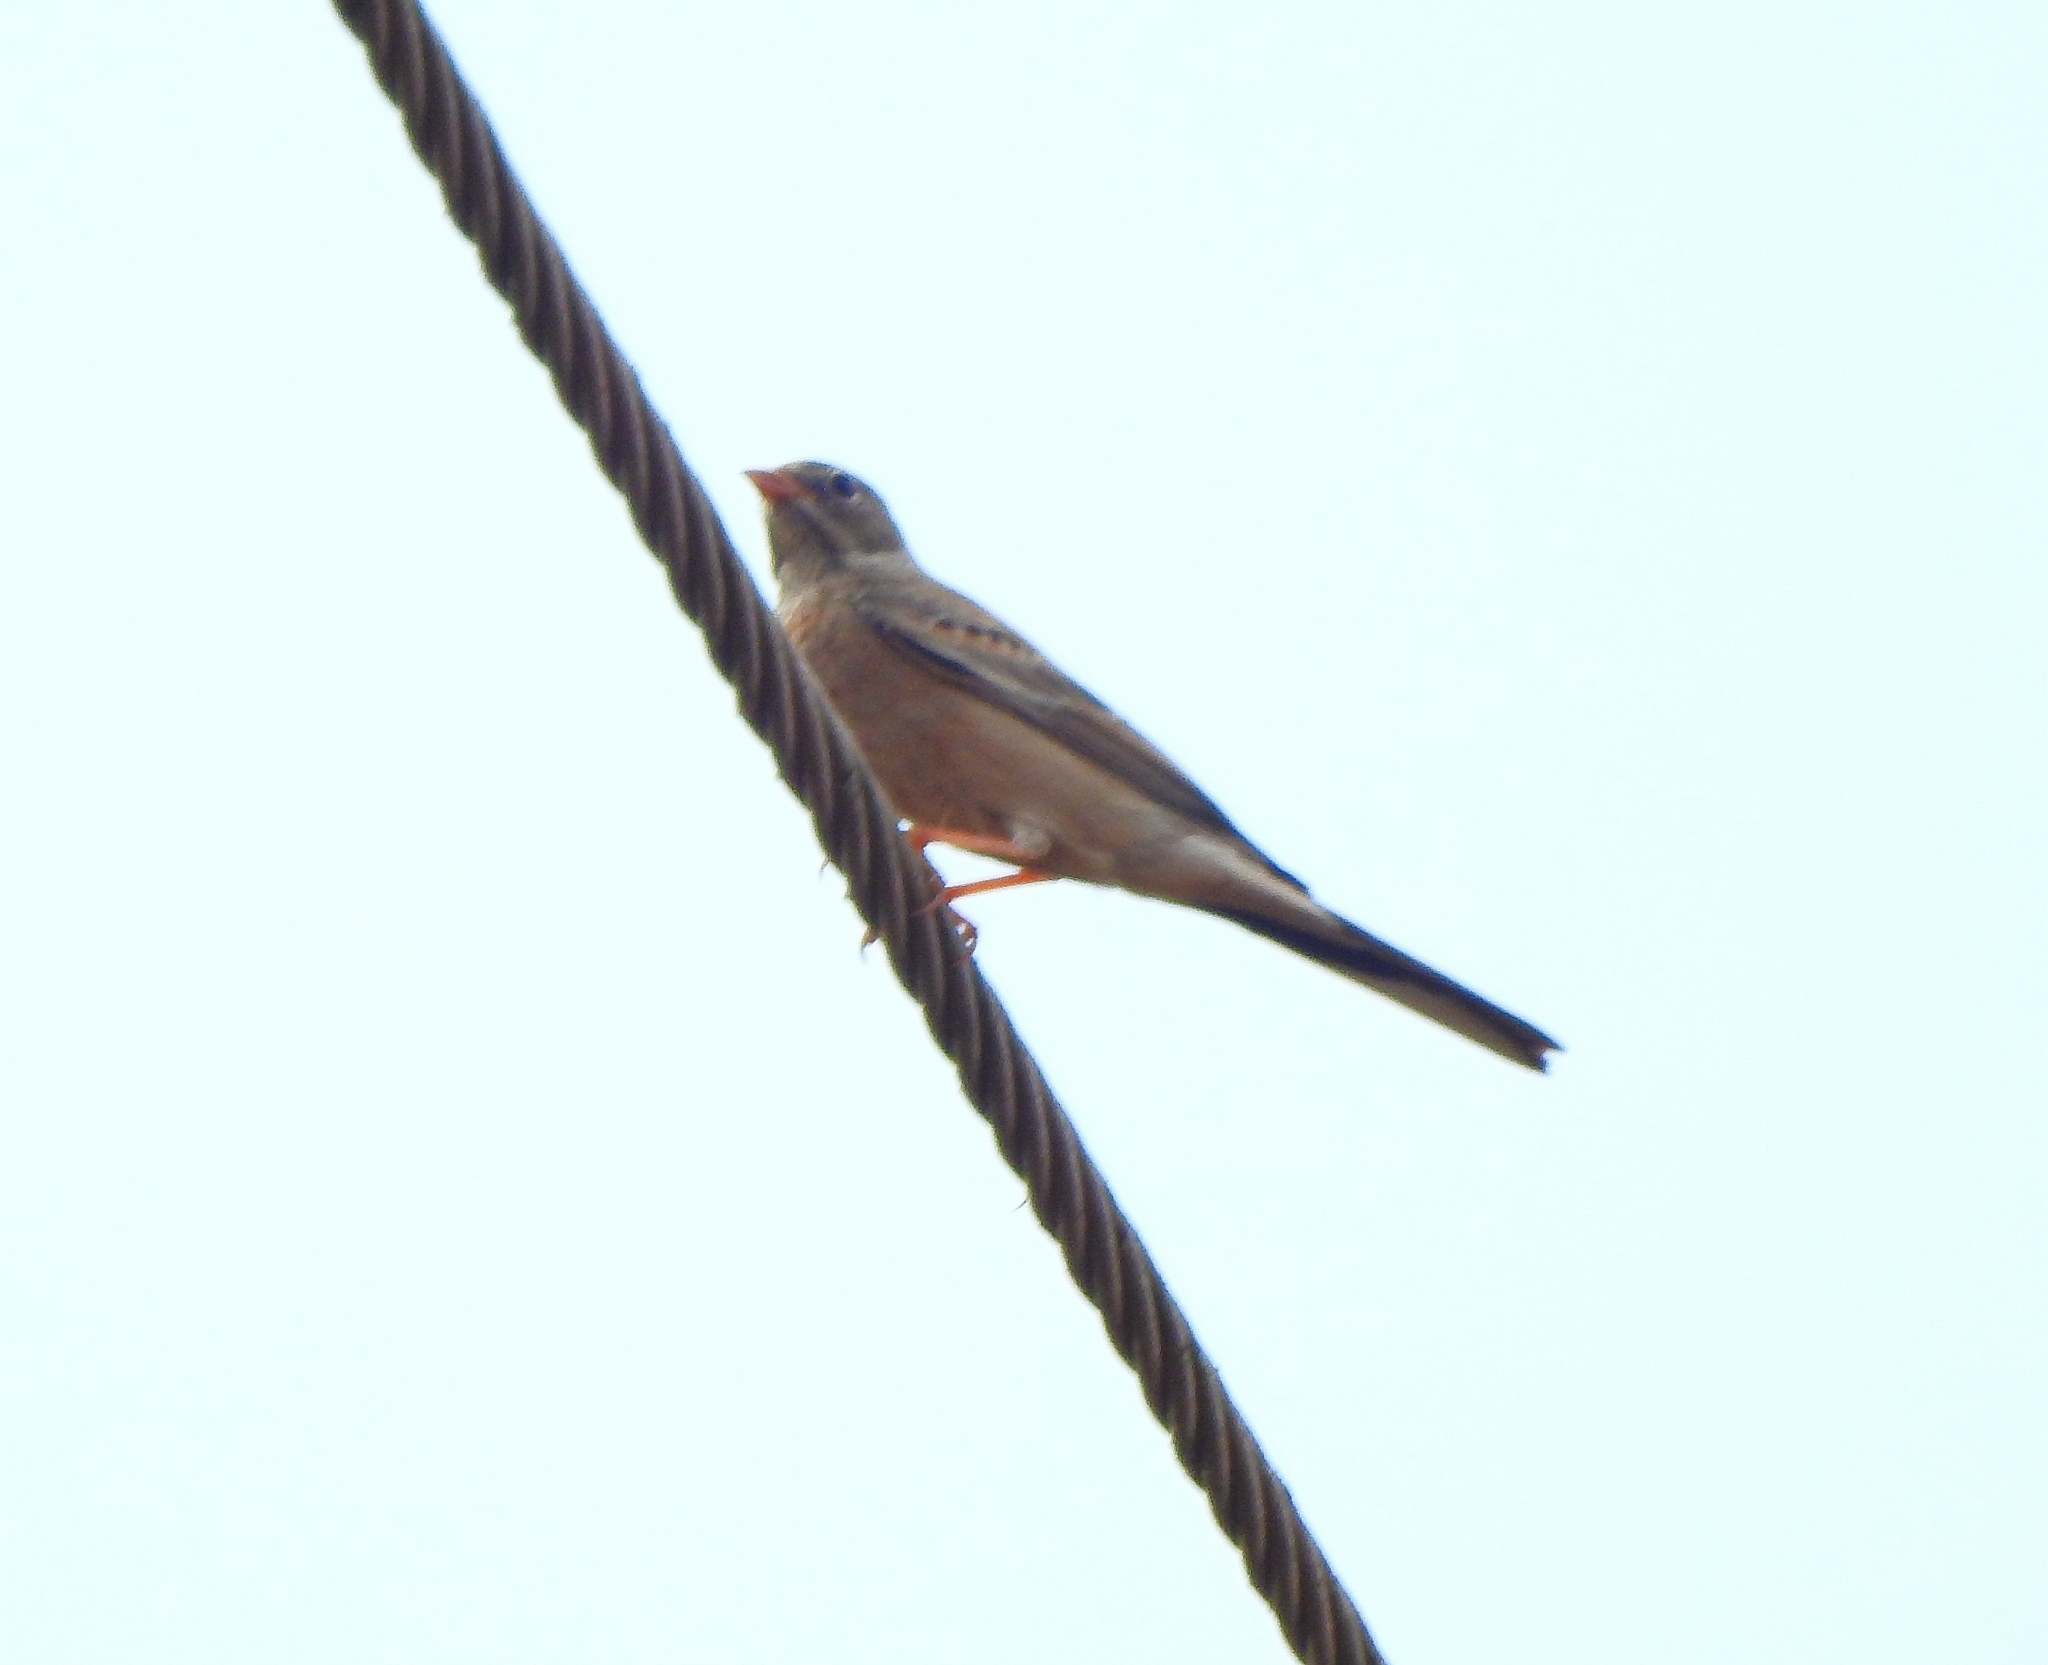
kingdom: Animalia
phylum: Chordata
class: Aves
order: Passeriformes
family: Emberizidae
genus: Emberiza
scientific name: Emberiza buchanani
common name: Grey-necked bunting
